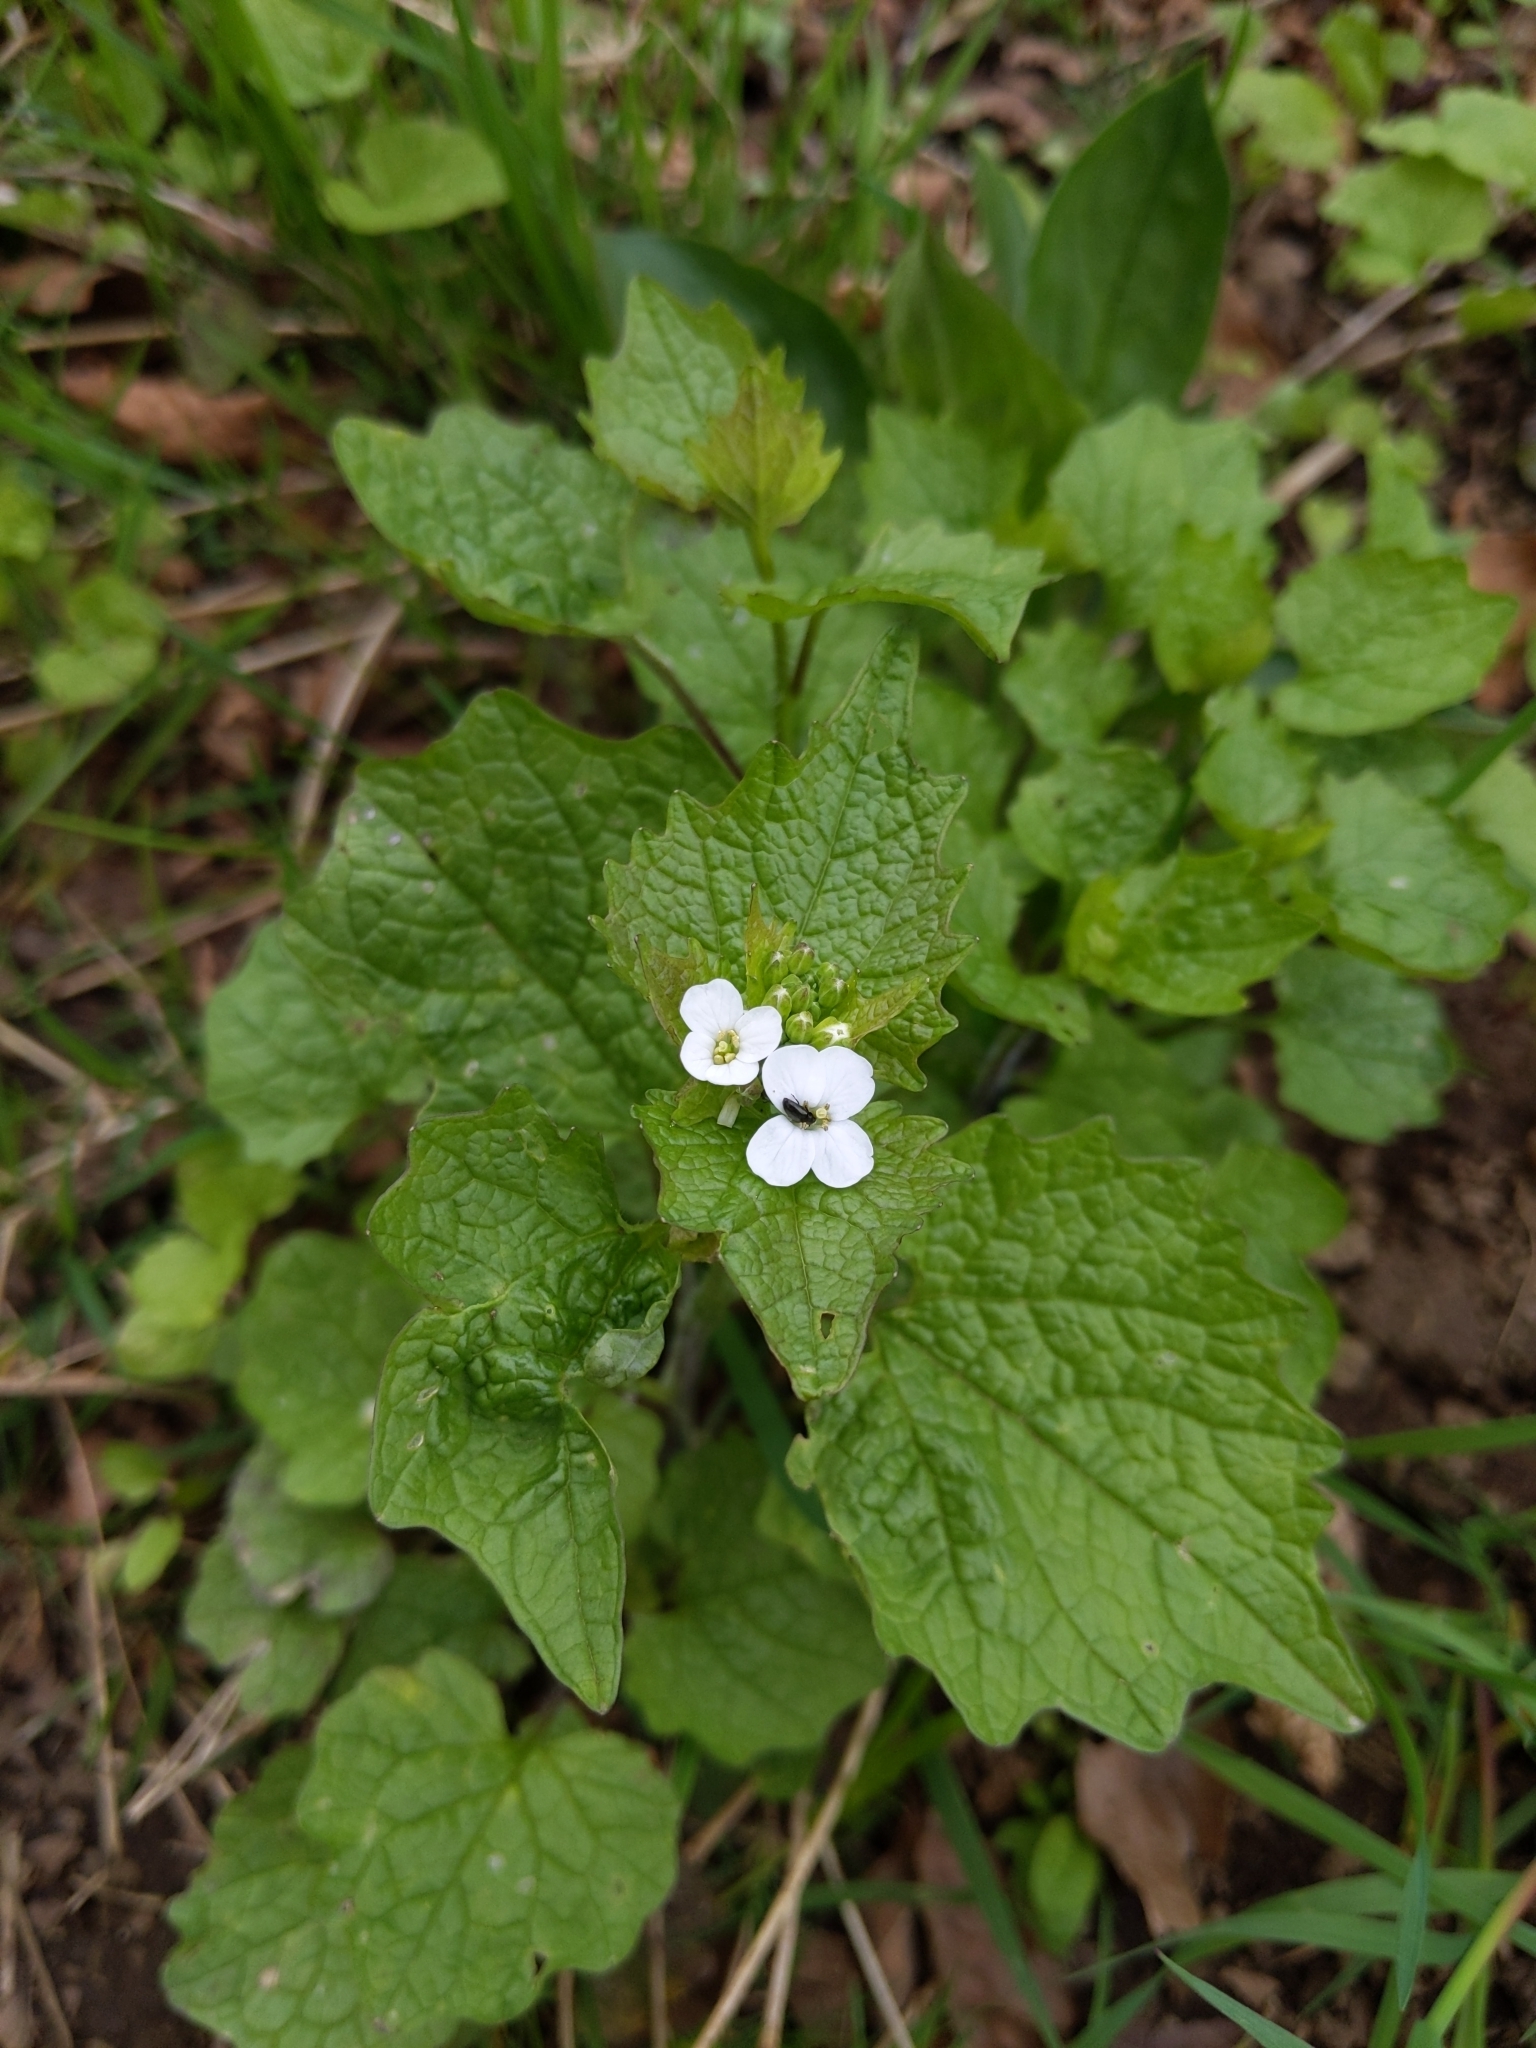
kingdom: Plantae
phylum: Tracheophyta
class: Magnoliopsida
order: Brassicales
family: Brassicaceae
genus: Alliaria
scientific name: Alliaria petiolata
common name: Garlic mustard
